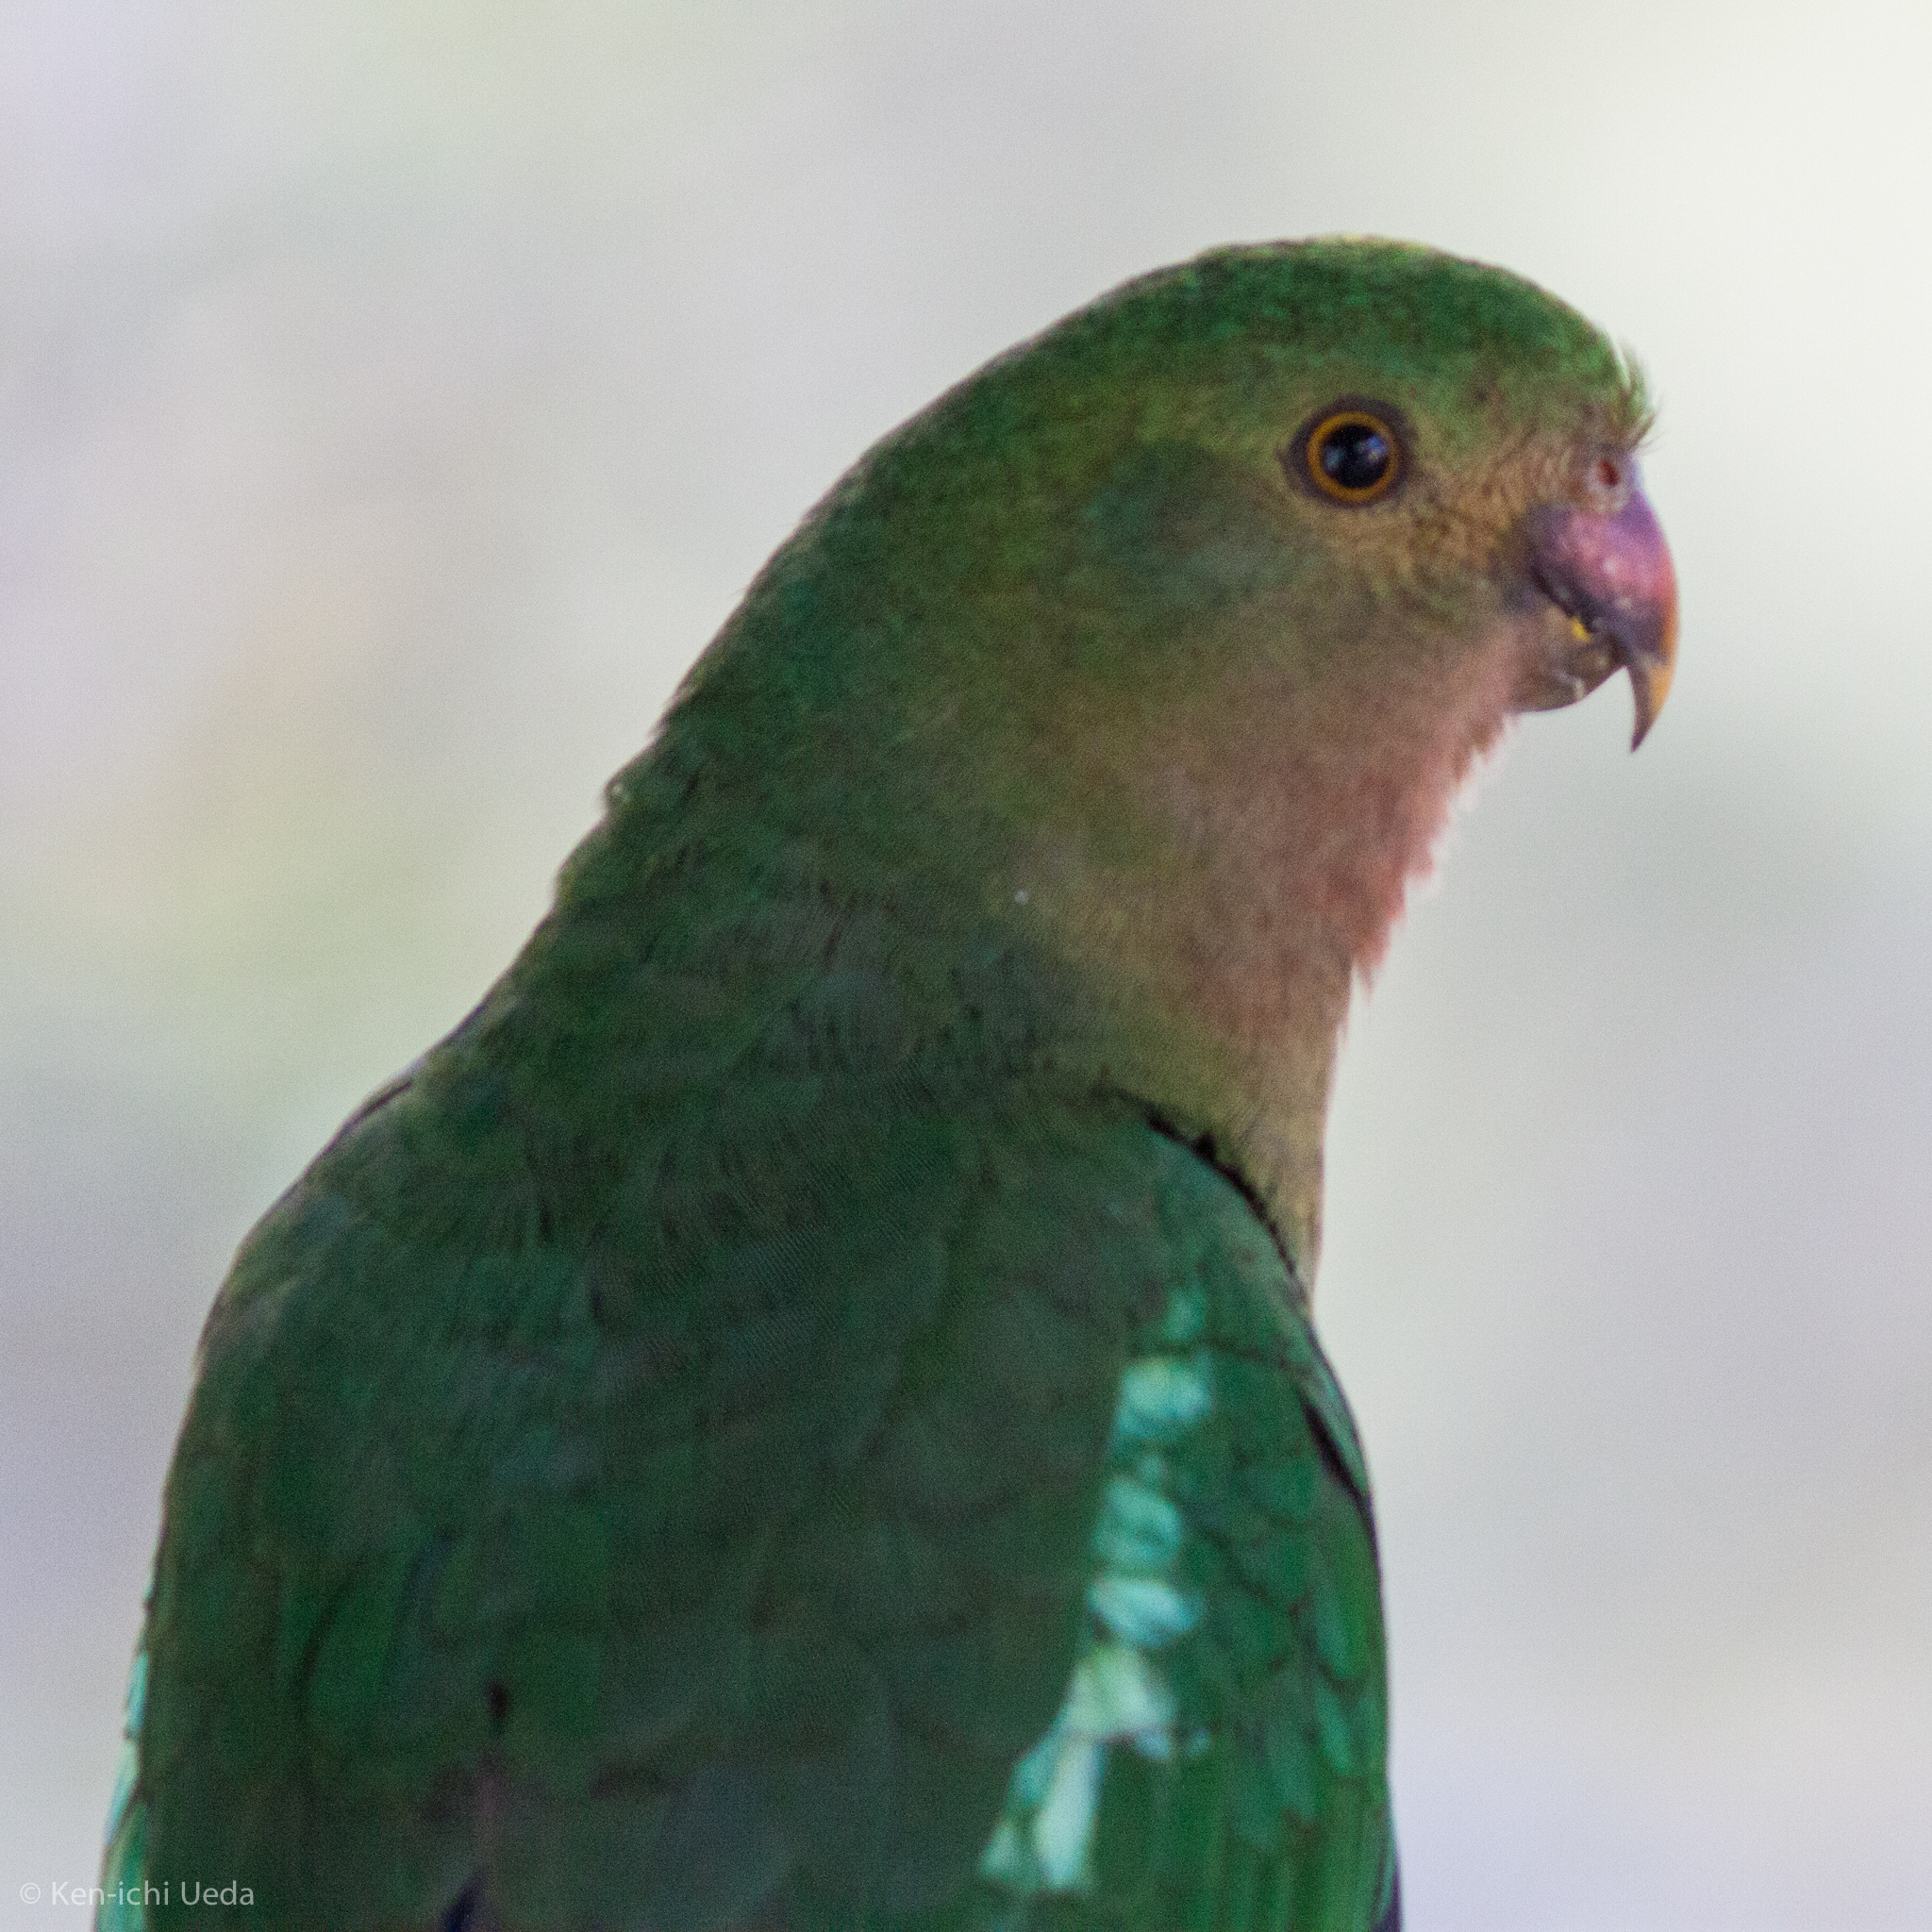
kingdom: Animalia
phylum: Chordata
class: Aves
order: Psittaciformes
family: Psittacidae
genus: Alisterus
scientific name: Alisterus scapularis
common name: Australian king parrot
